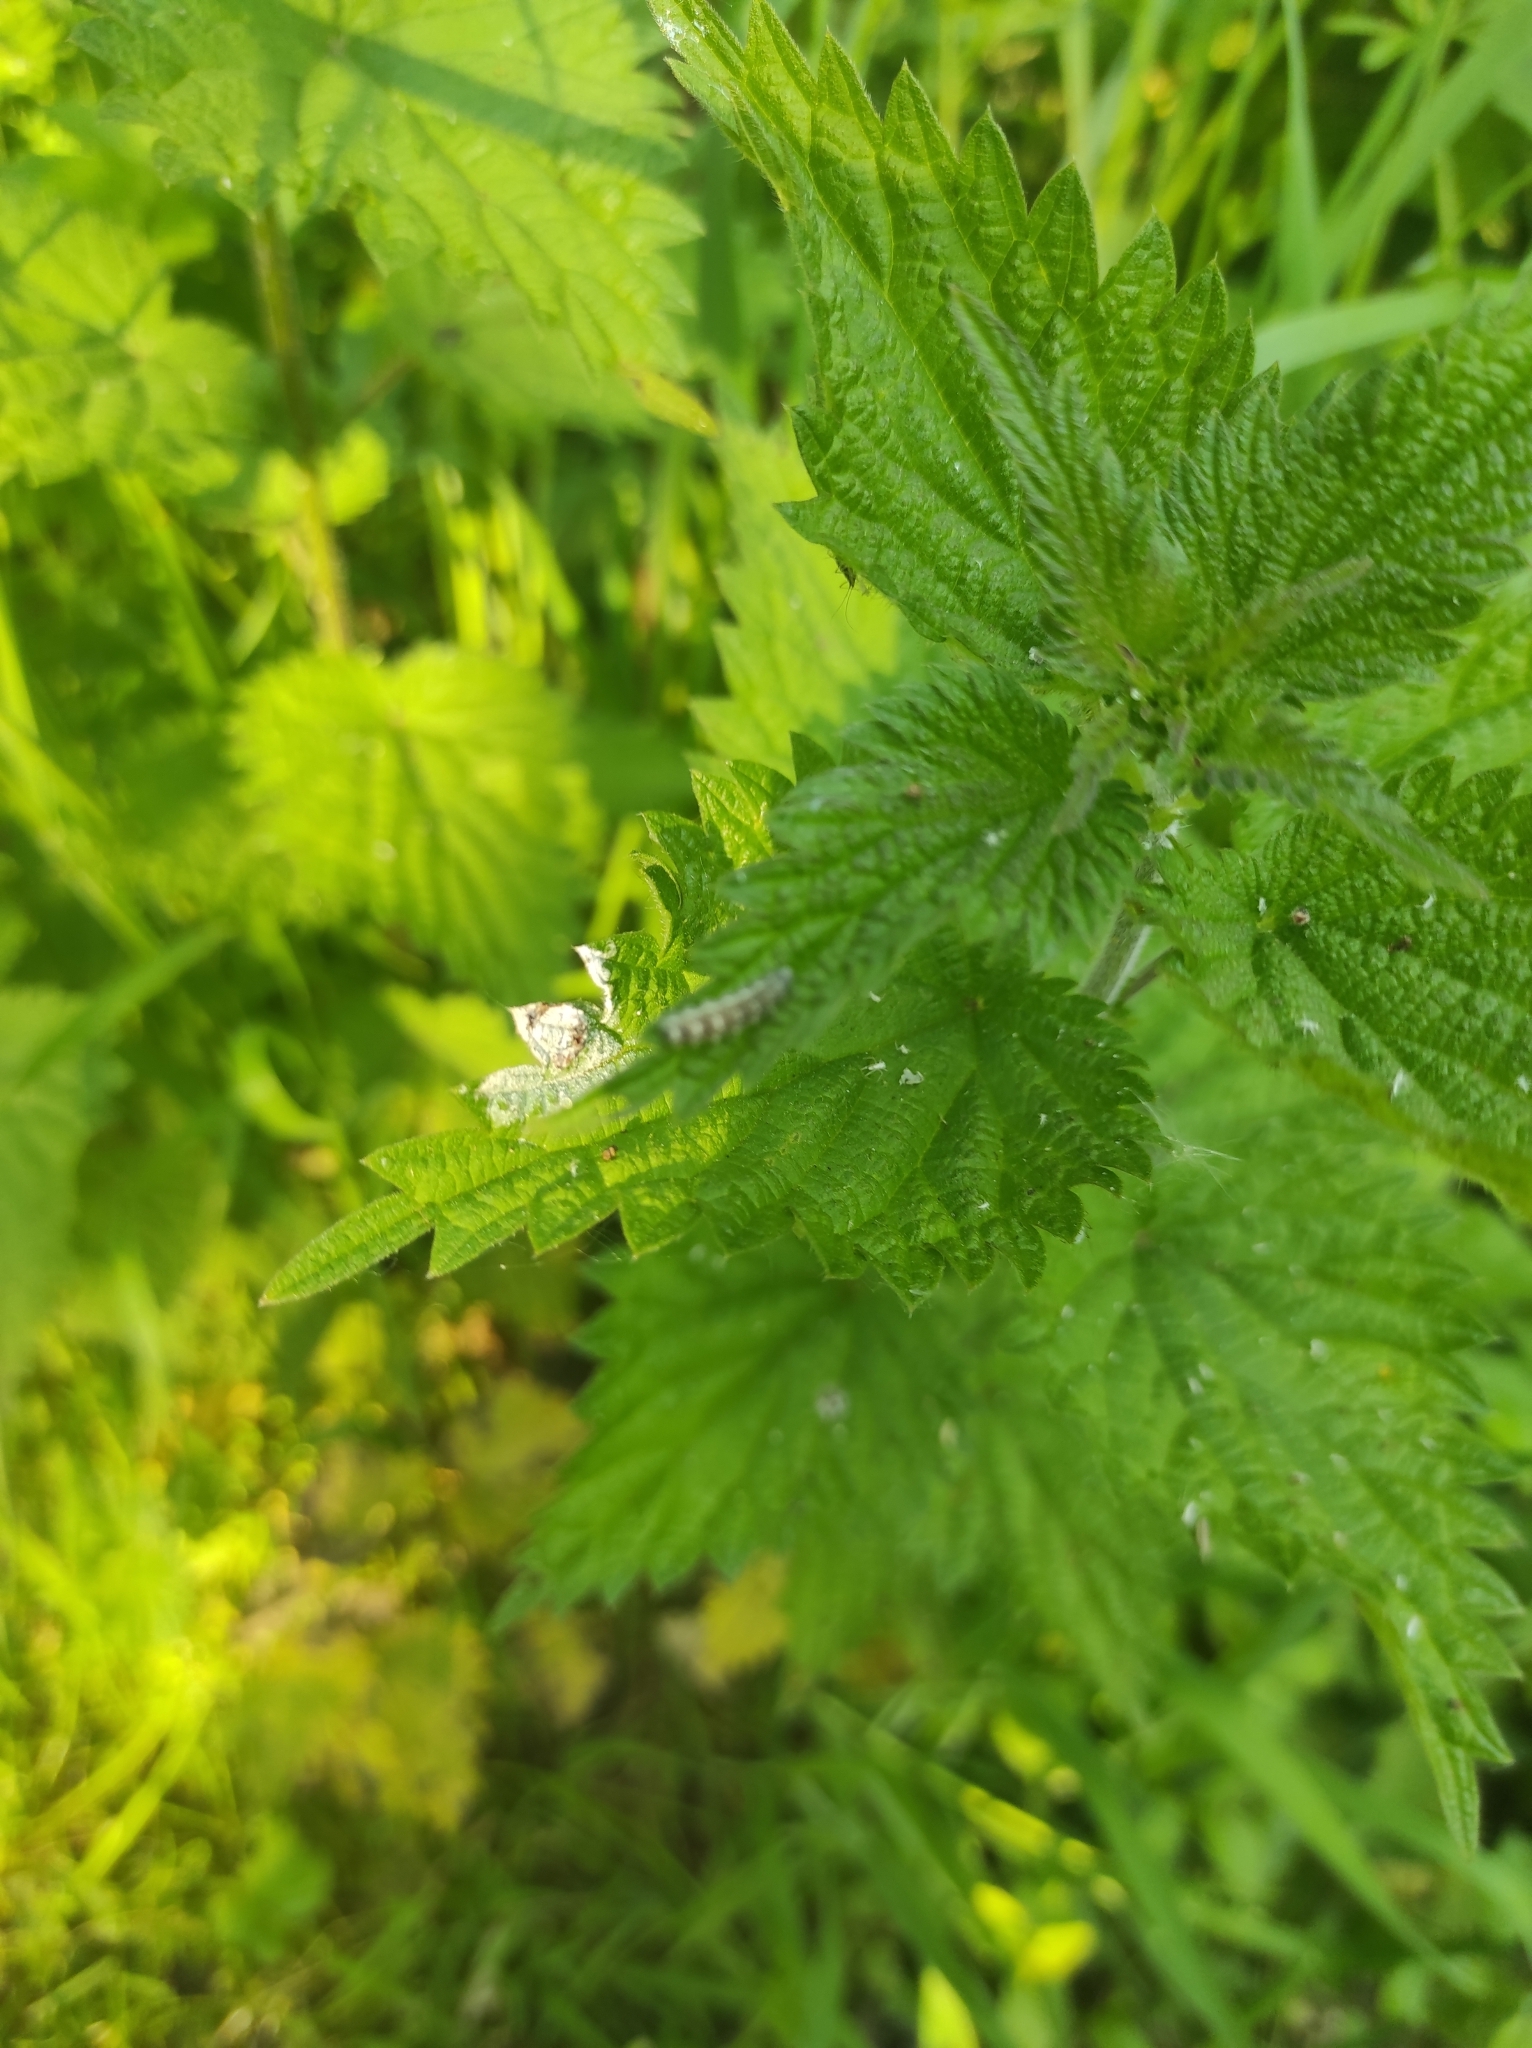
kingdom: Animalia
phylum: Arthropoda
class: Insecta
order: Diptera
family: Syrphidae
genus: Eupeodes
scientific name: Eupeodes
